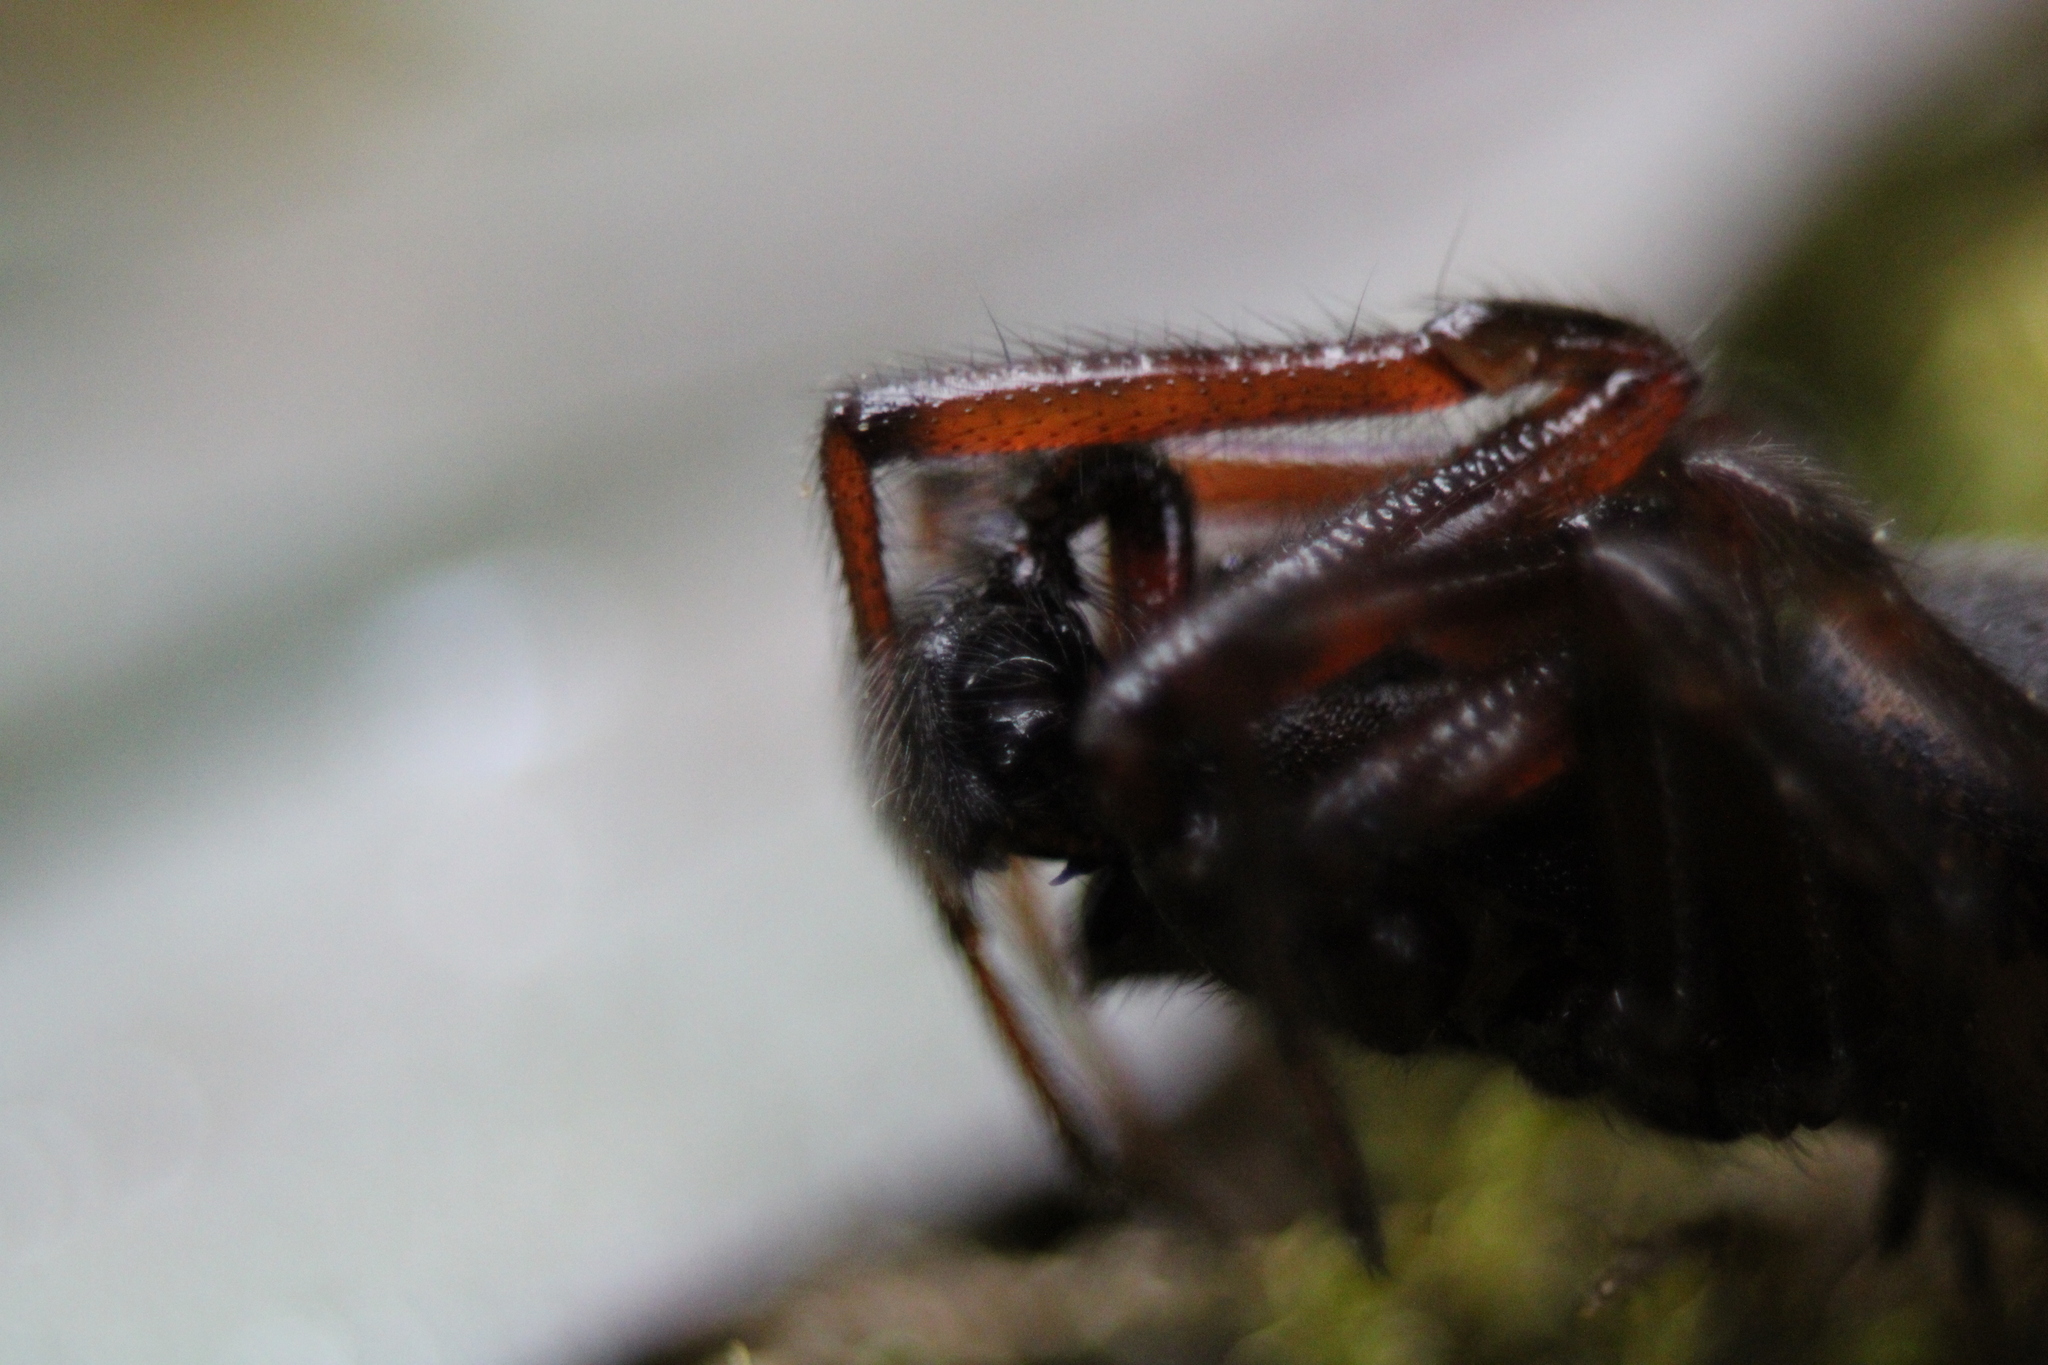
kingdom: Animalia
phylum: Arthropoda
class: Arachnida
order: Araneae
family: Theridiidae
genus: Steatoda
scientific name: Steatoda borealis
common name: Boreal combfoot
